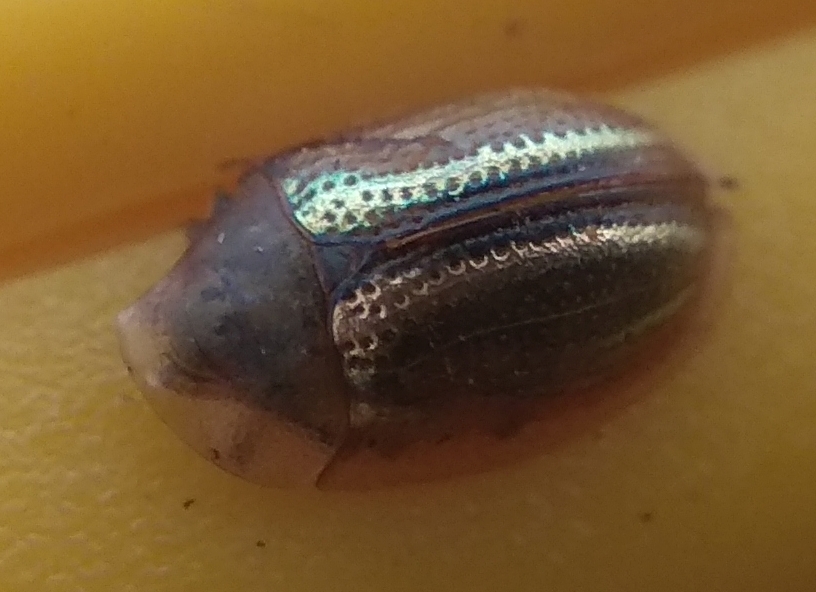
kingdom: Animalia
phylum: Arthropoda
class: Insecta
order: Coleoptera
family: Chrysomelidae
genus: Cassida
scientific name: Cassida nobilis
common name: Leaf beetle
